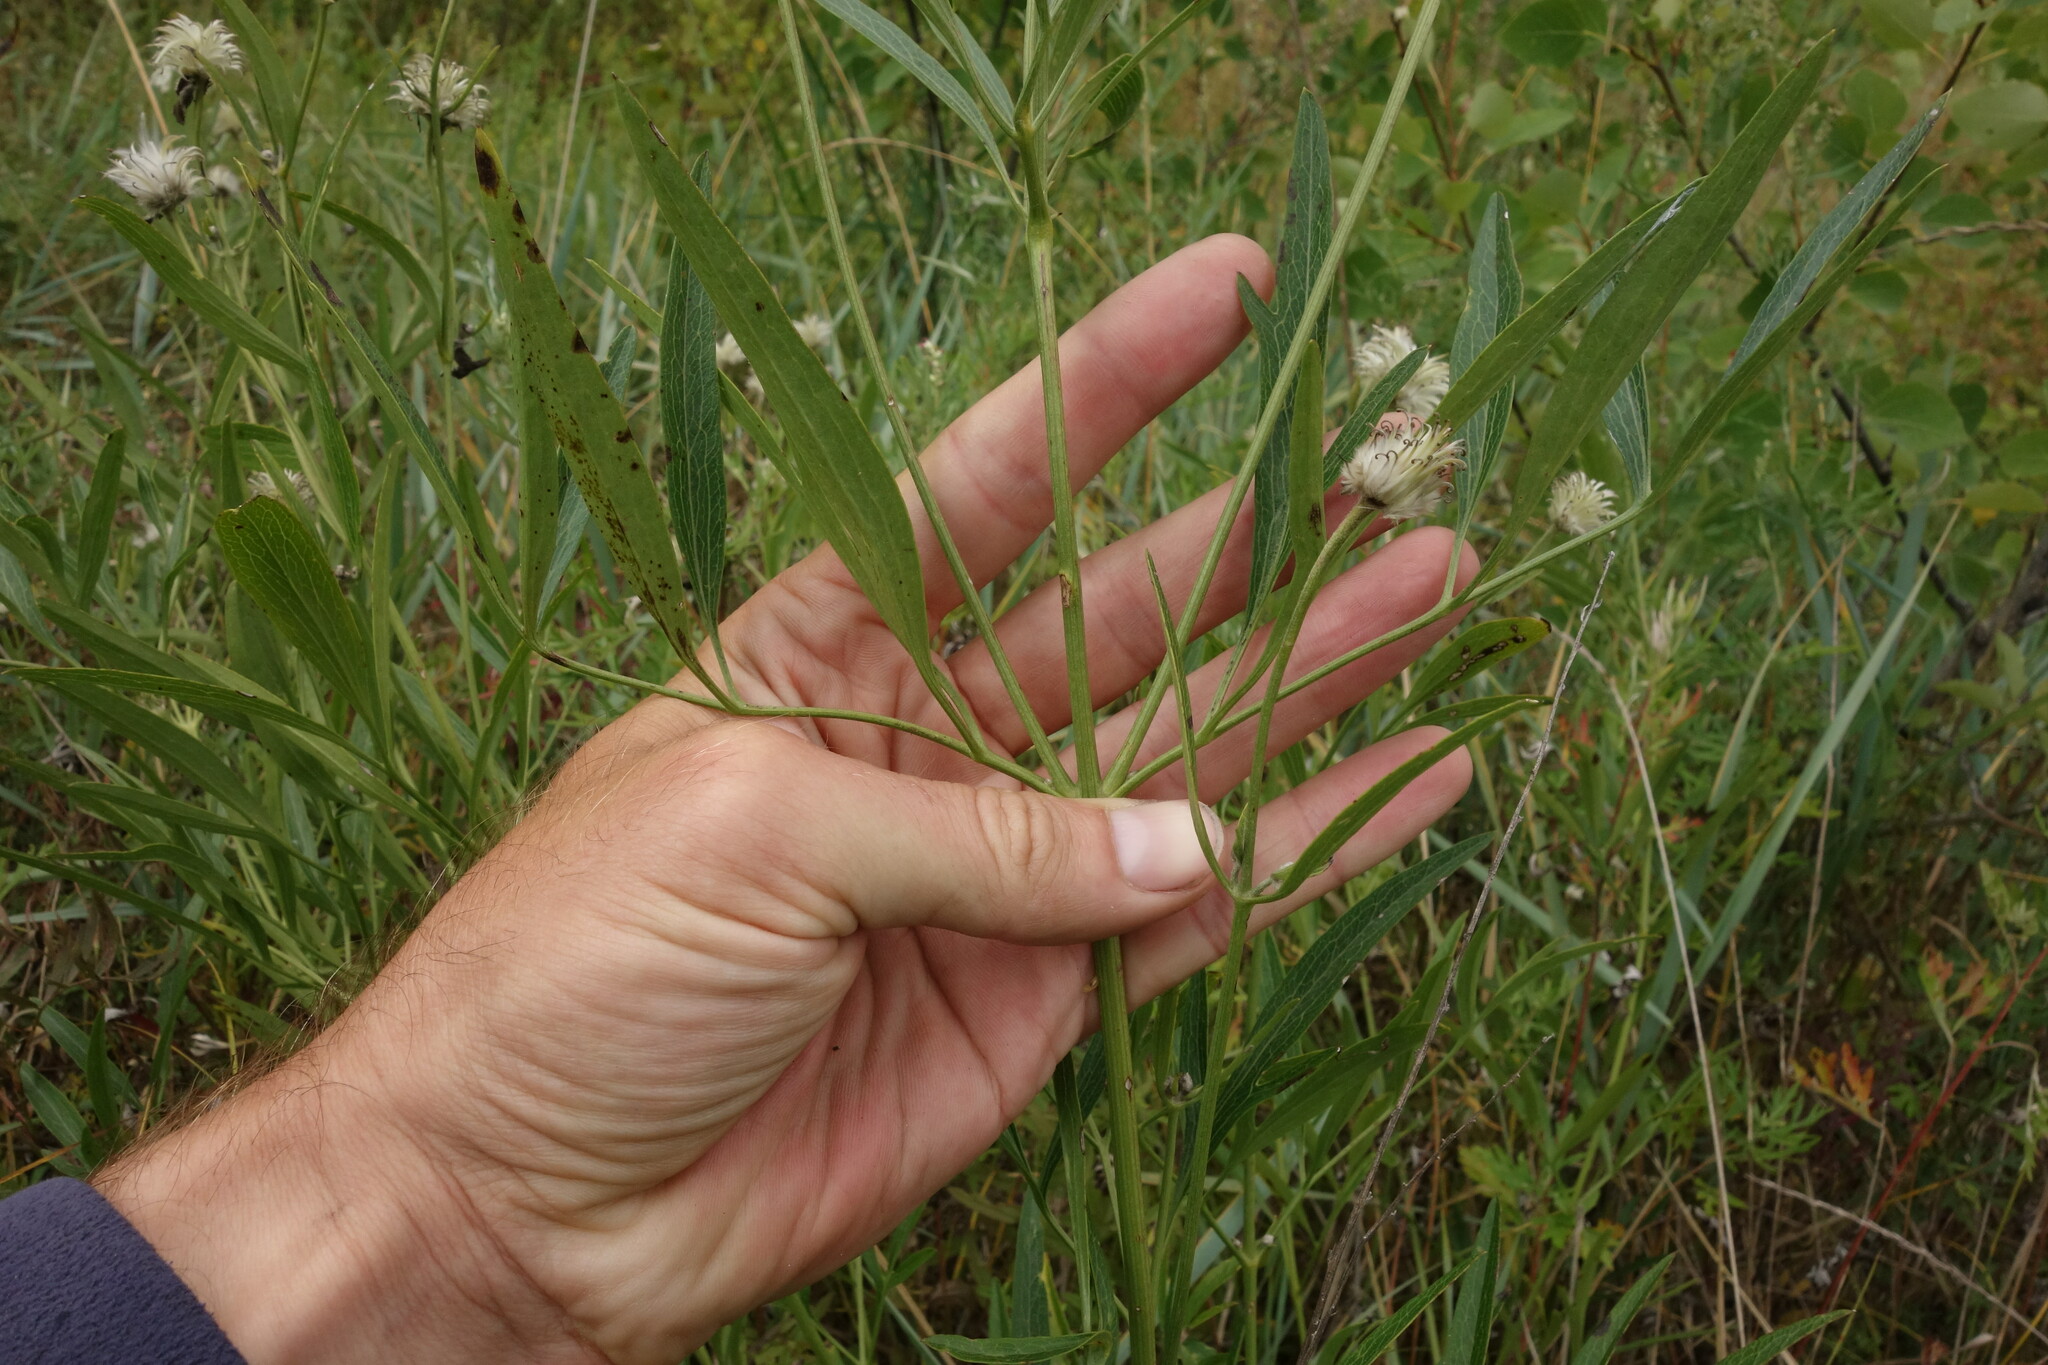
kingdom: Plantae
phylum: Tracheophyta
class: Magnoliopsida
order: Ranunculales
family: Ranunculaceae
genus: Clematis
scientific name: Clematis hexapetala
